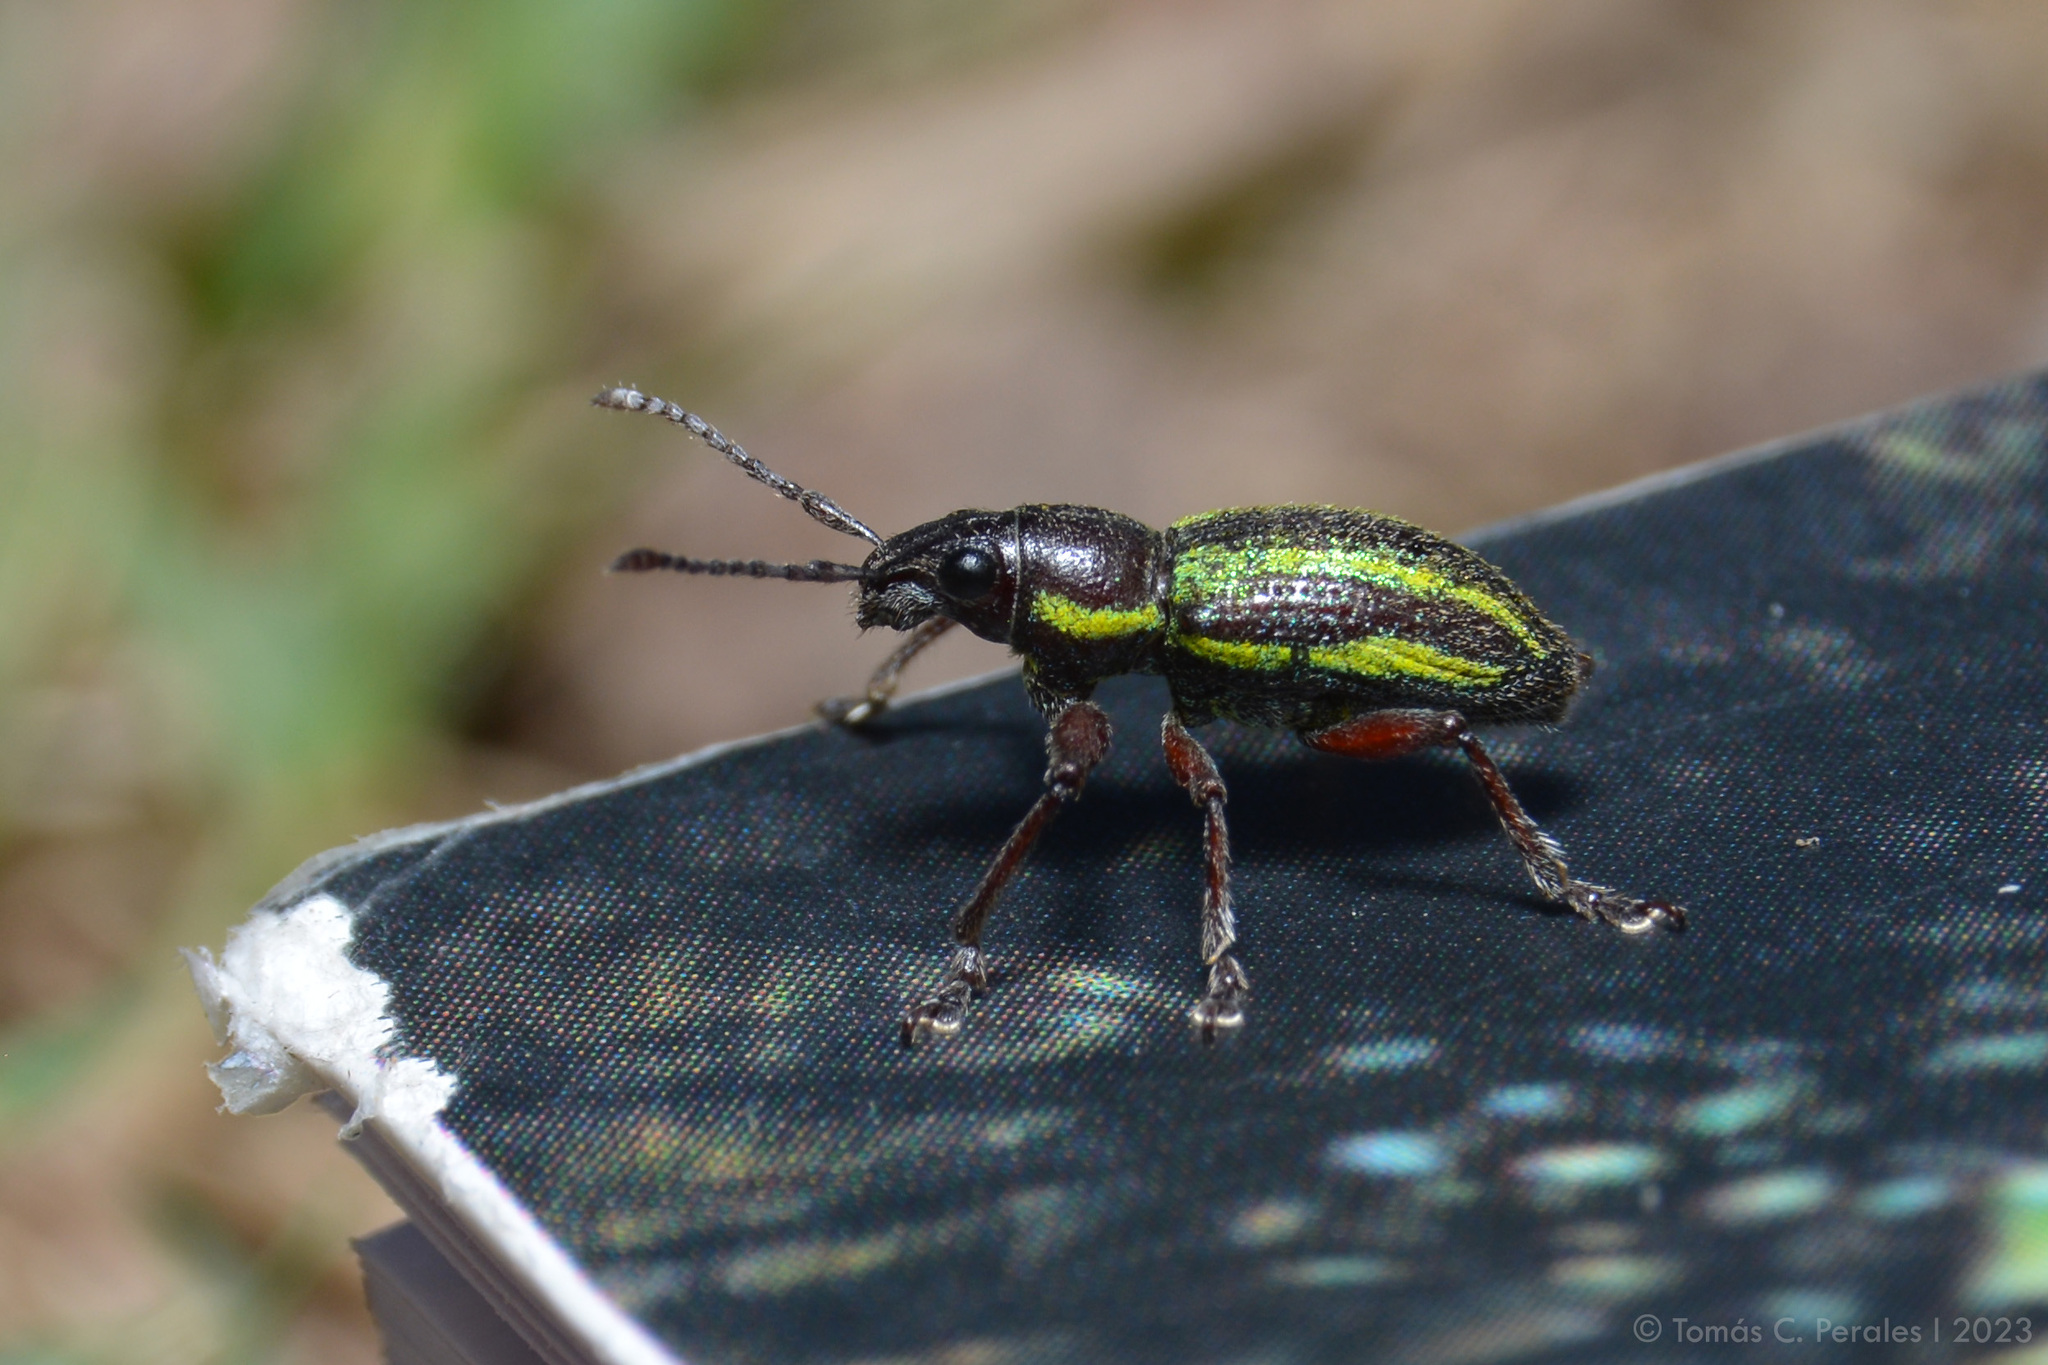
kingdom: Animalia
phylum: Arthropoda
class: Insecta
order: Coleoptera
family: Curculionidae
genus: Naupactus
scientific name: Naupactus sulphurifer
